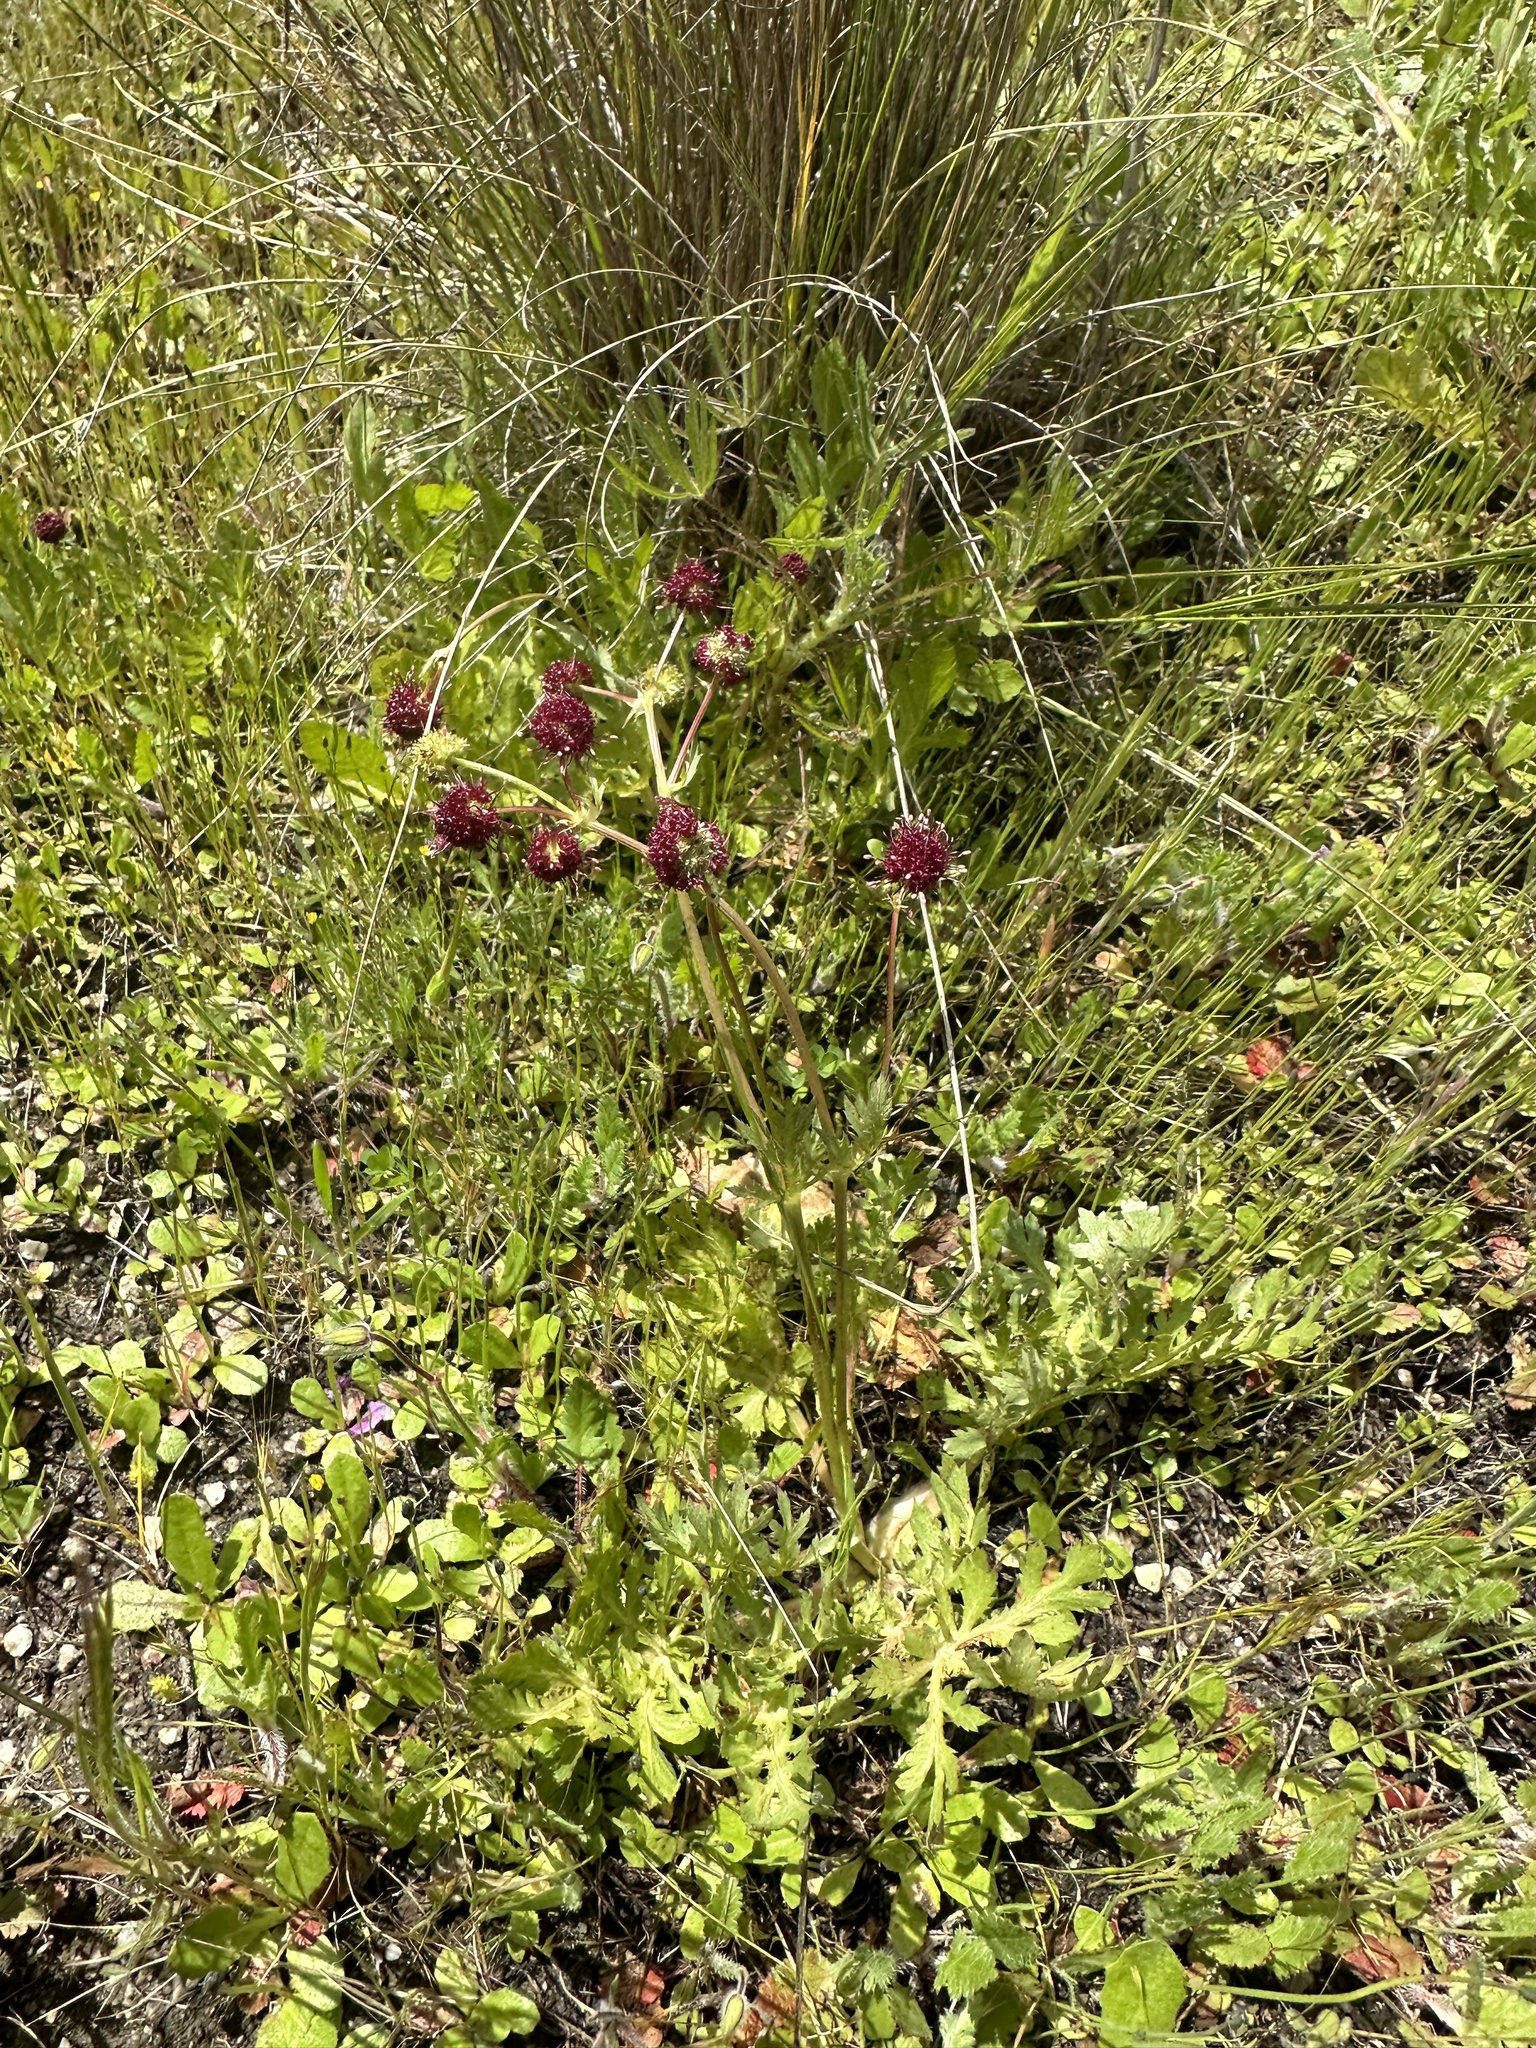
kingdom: Plantae
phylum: Tracheophyta
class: Magnoliopsida
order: Apiales
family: Apiaceae
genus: Sanicula
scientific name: Sanicula bipinnatifida
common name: Shoe-buttons
